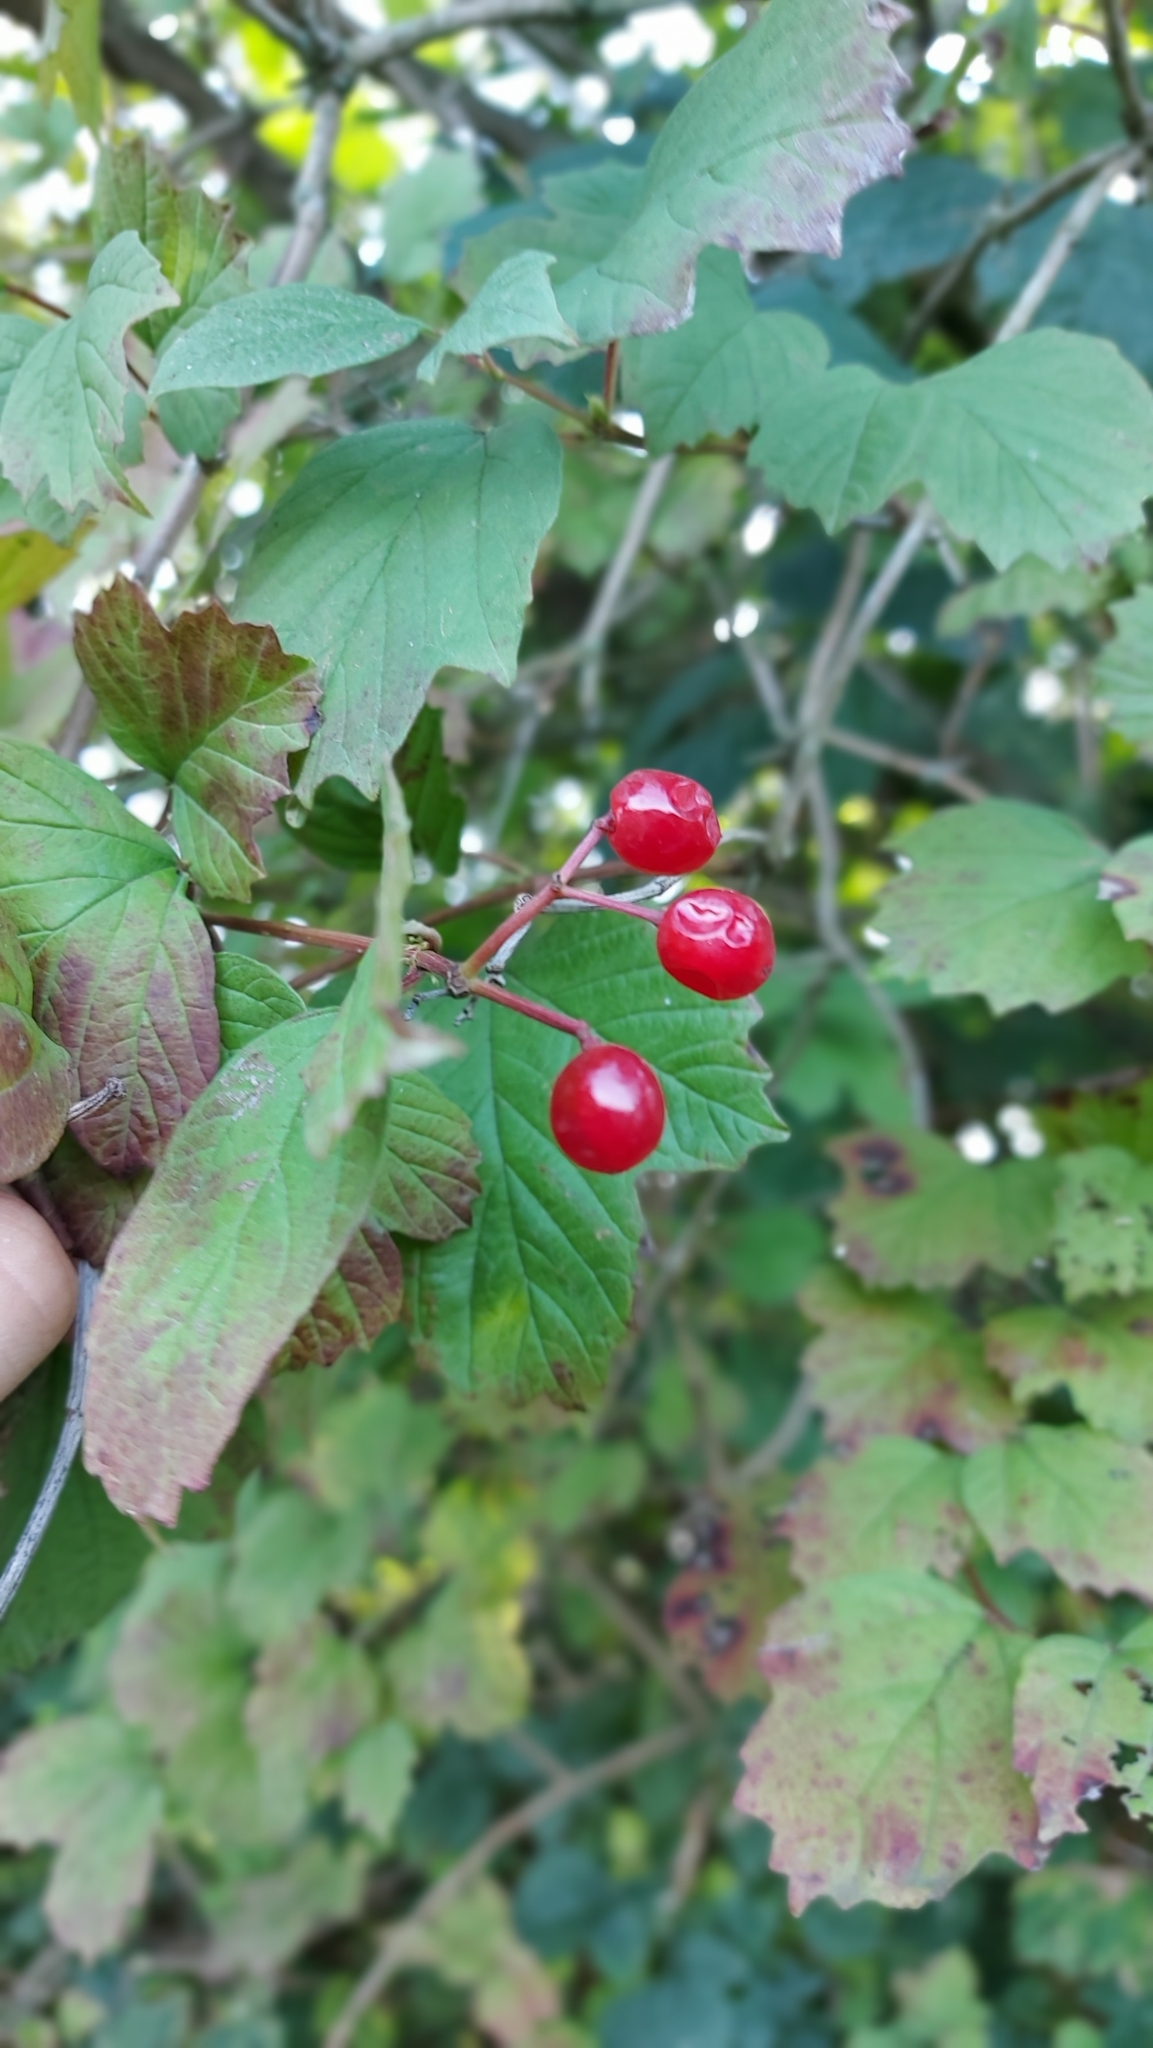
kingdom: Plantae
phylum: Tracheophyta
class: Magnoliopsida
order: Dipsacales
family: Viburnaceae
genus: Viburnum
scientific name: Viburnum opulus
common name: Guelder-rose
